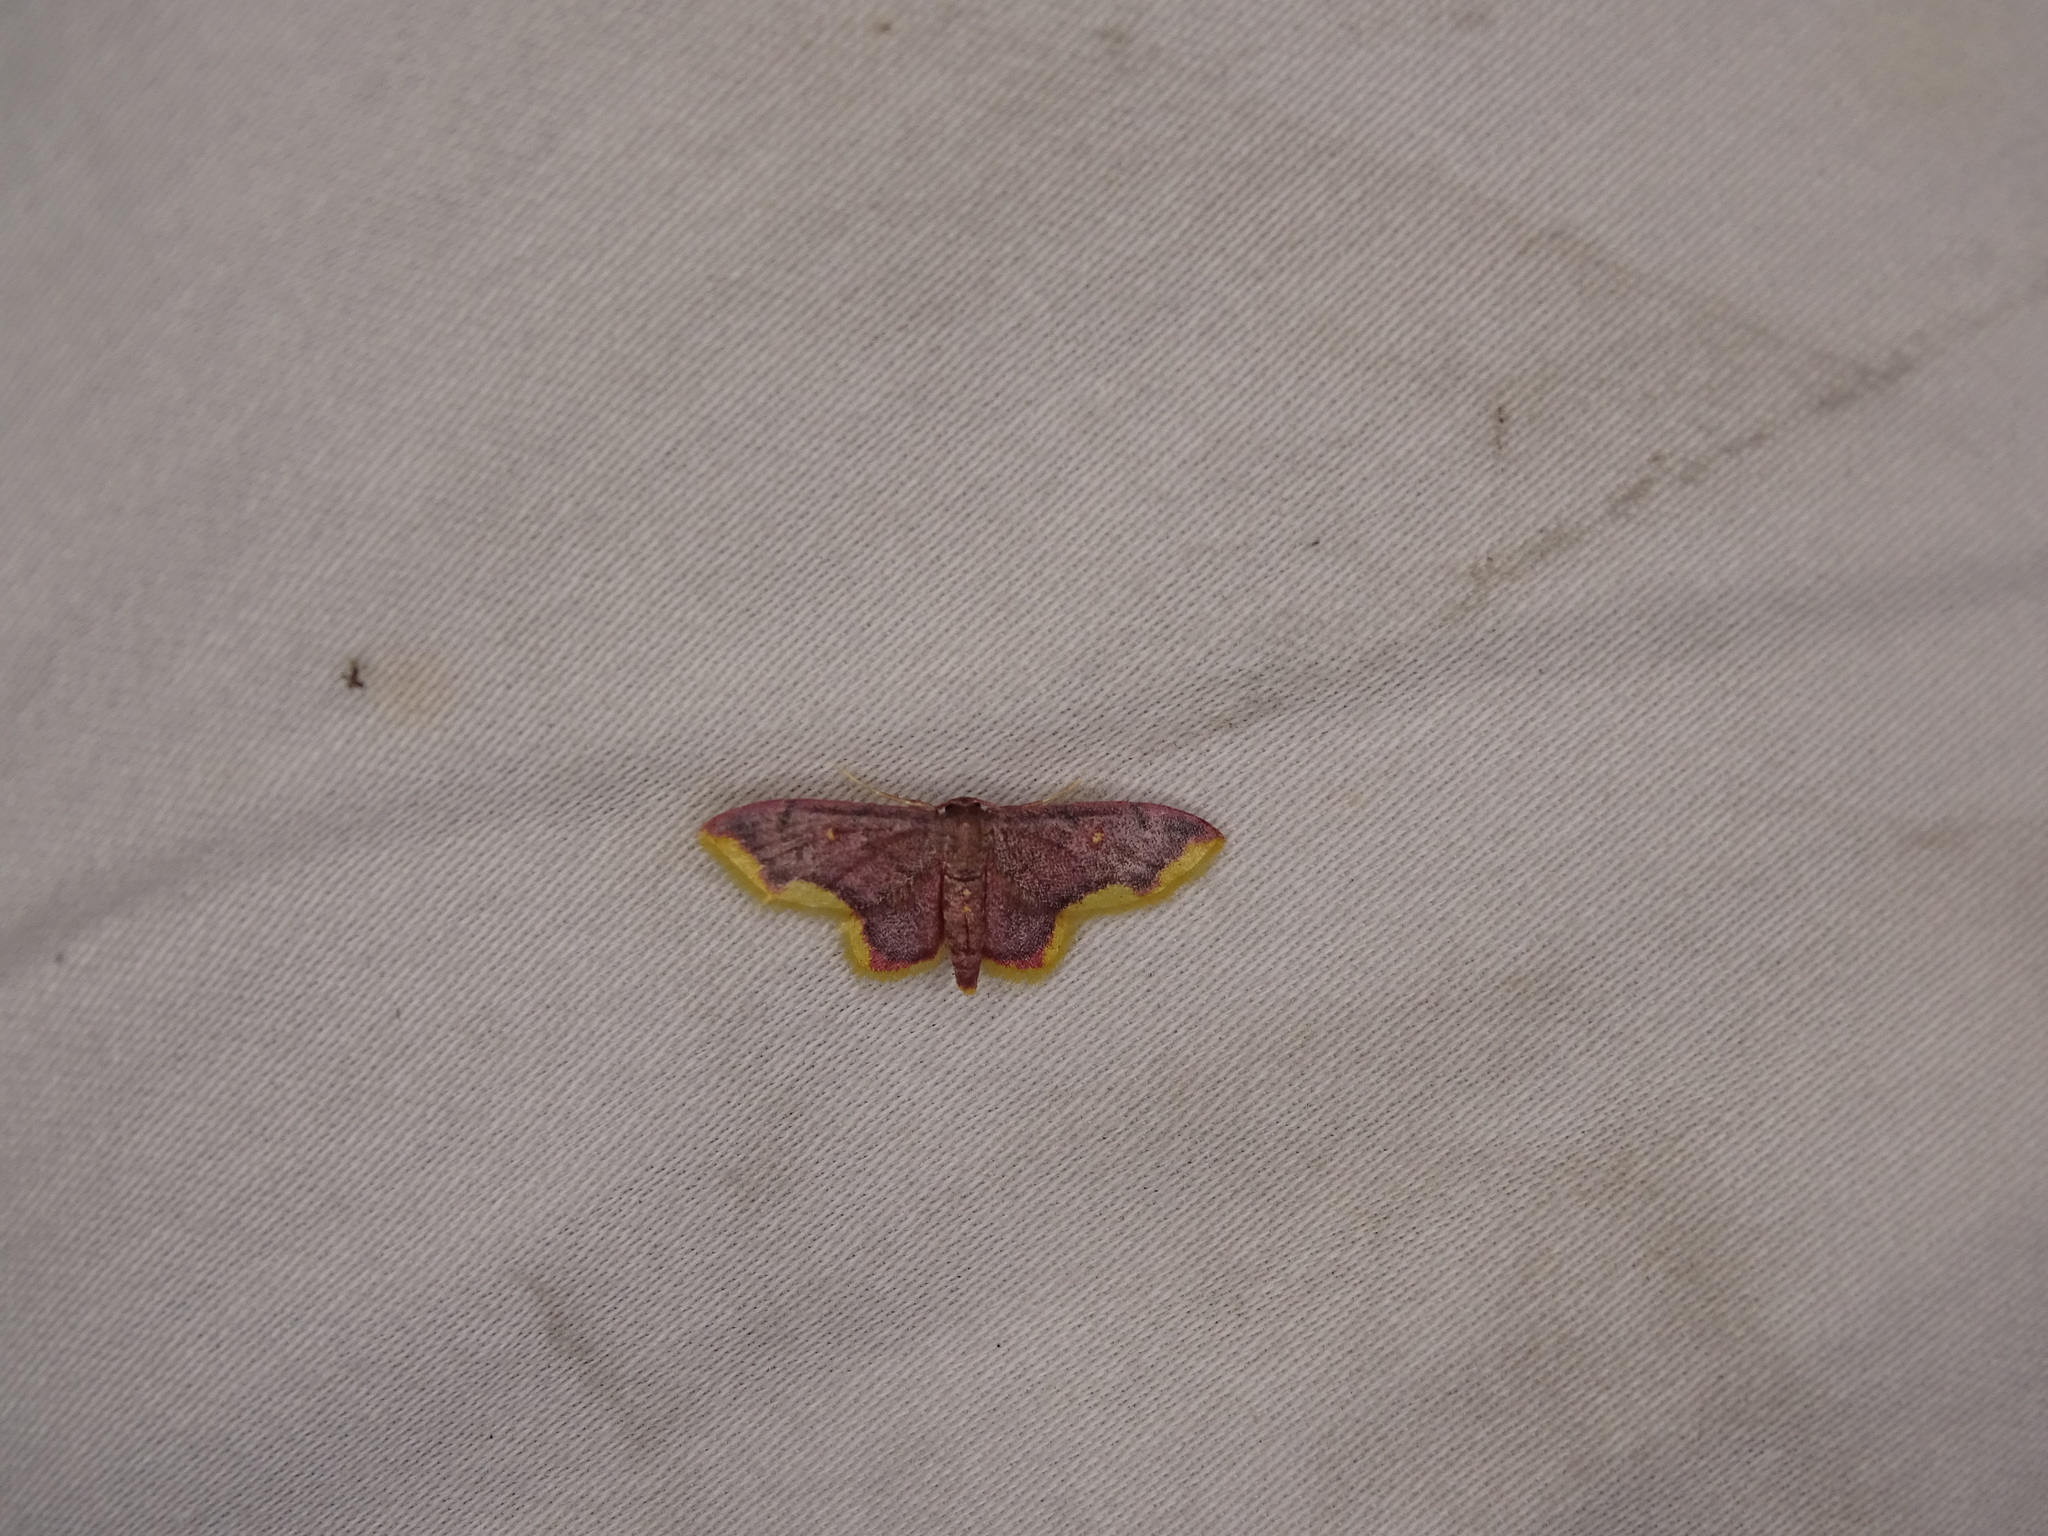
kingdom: Animalia
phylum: Arthropoda
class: Insecta
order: Lepidoptera
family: Geometridae
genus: Lophosis
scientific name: Lophosis labeculata
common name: Stained lophosis moth
